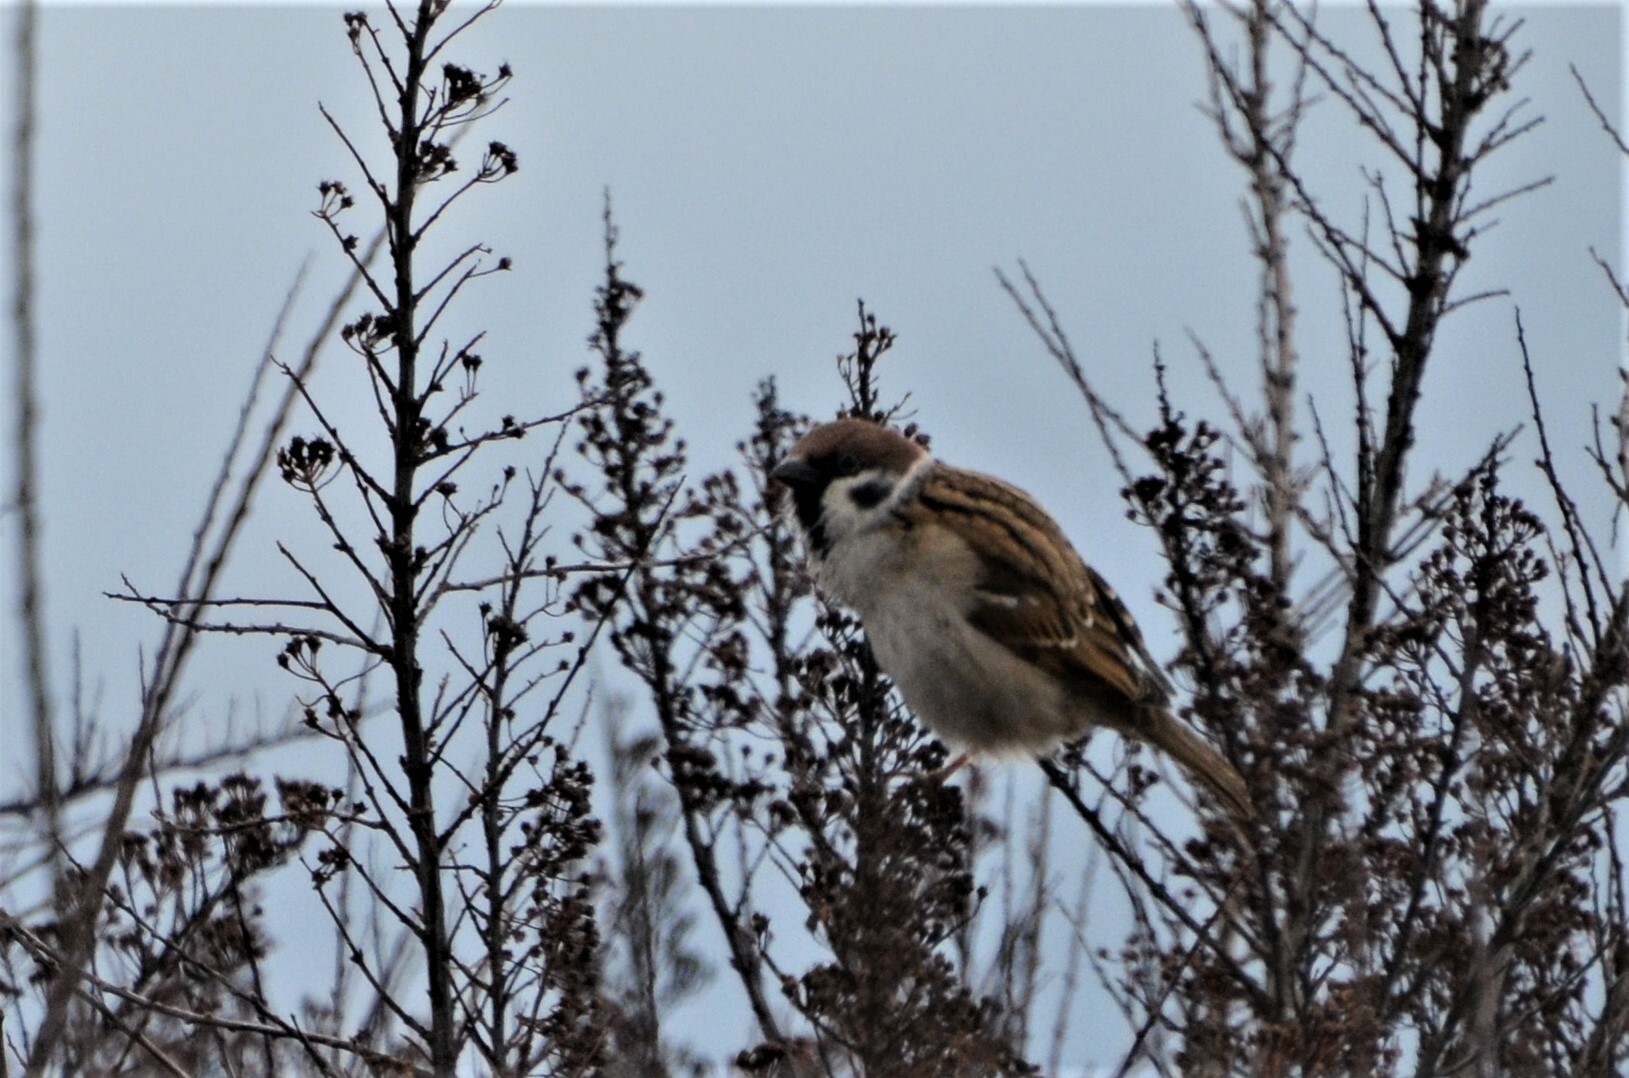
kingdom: Animalia
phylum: Chordata
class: Aves
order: Passeriformes
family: Passeridae
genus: Passer
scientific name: Passer montanus
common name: Eurasian tree sparrow
